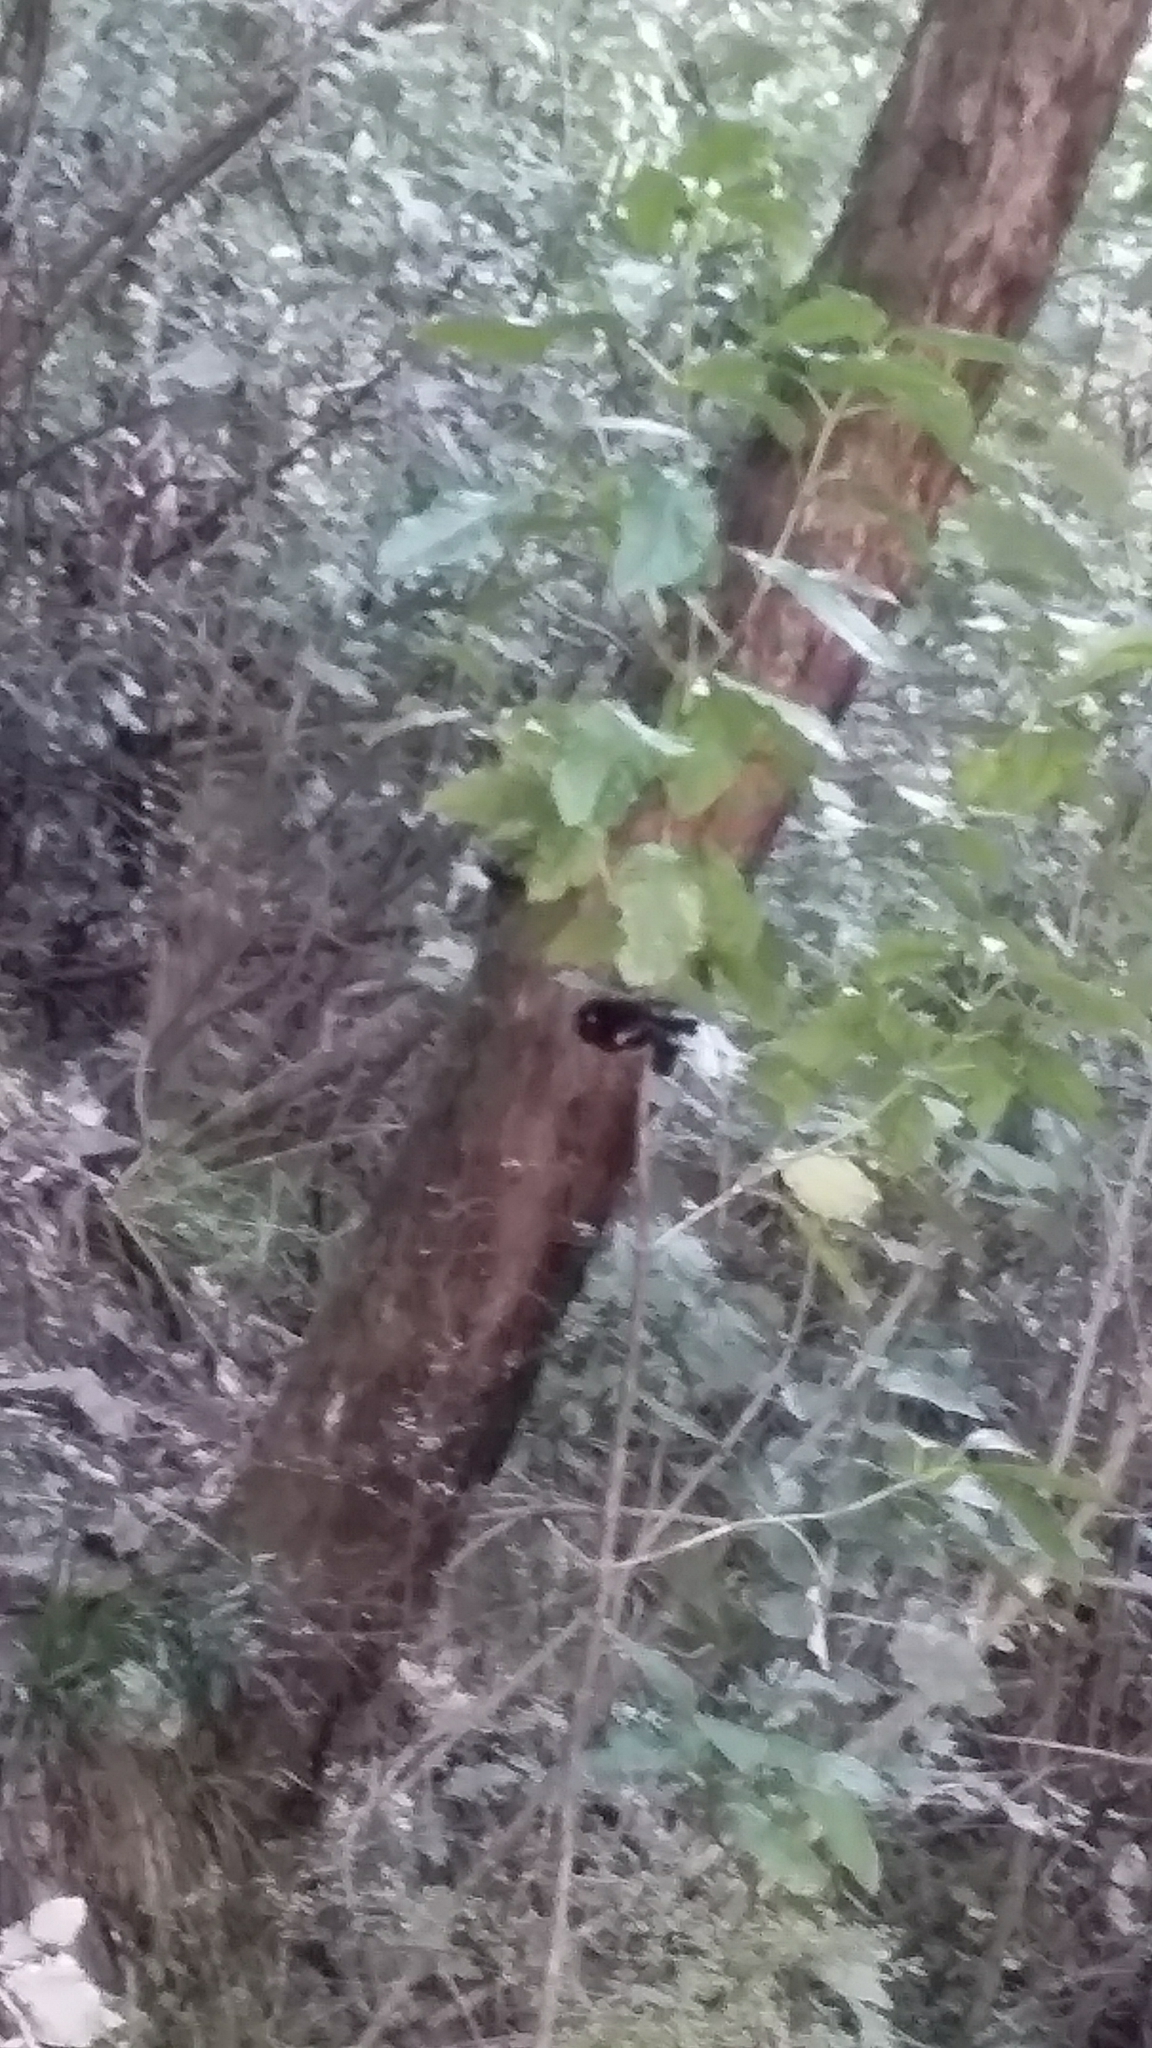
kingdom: Animalia
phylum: Chordata
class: Aves
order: Passeriformes
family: Petroicidae
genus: Petroica
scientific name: Petroica macrocephala
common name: Tomtit
